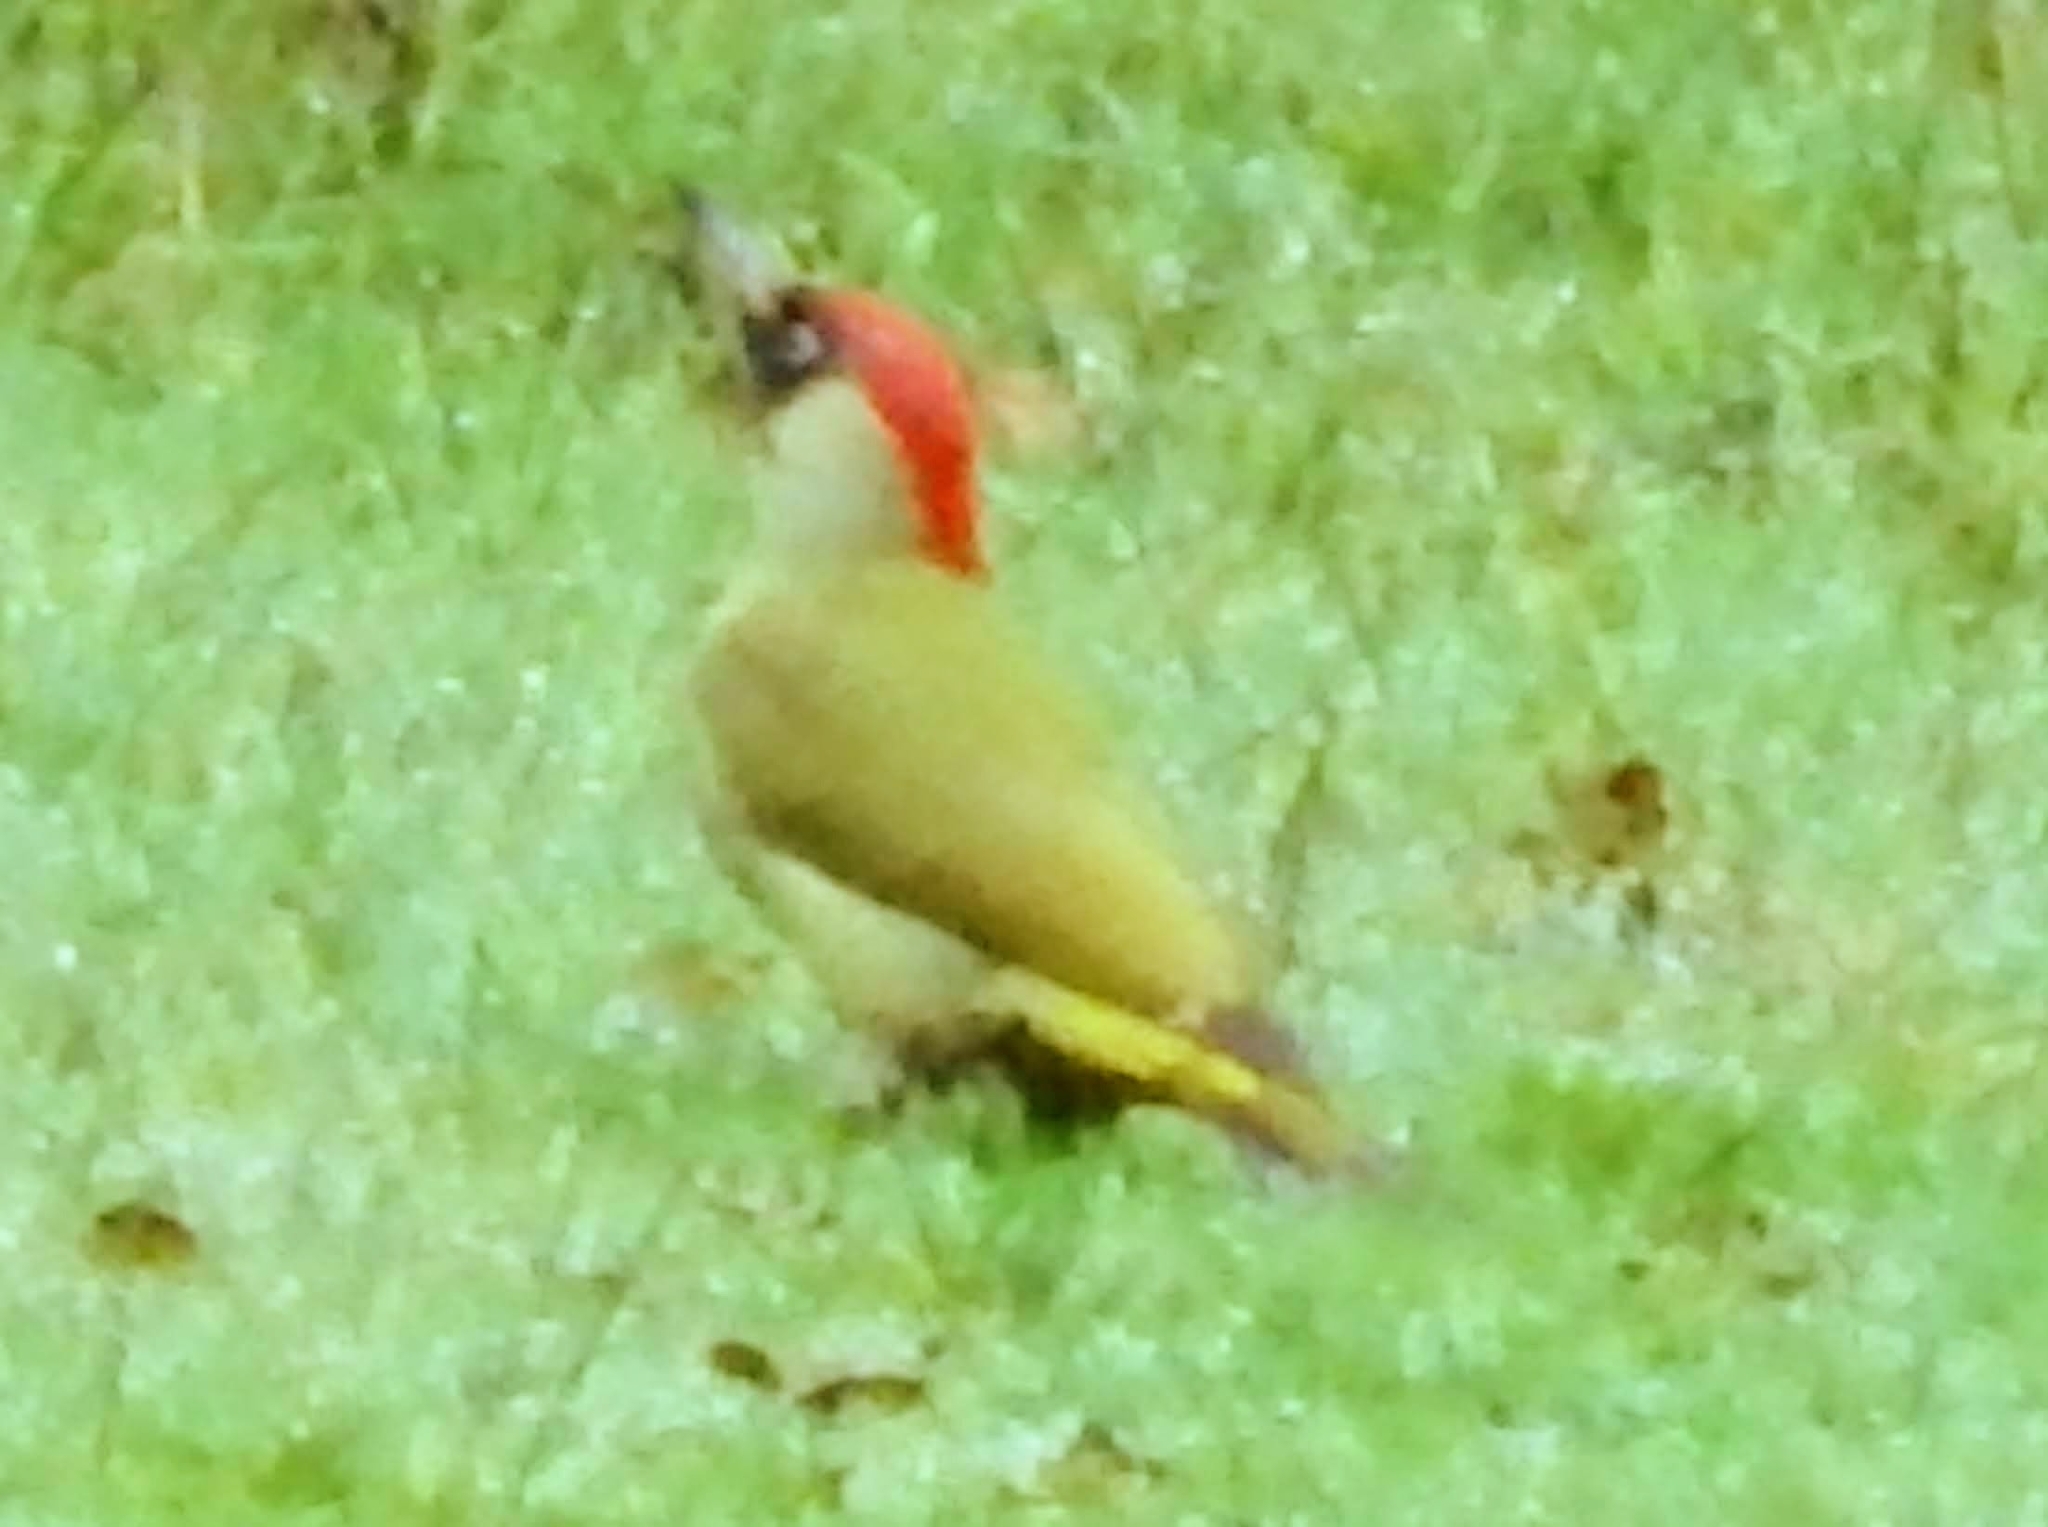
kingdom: Animalia
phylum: Chordata
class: Aves
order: Piciformes
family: Picidae
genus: Picus
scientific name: Picus viridis
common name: European green woodpecker
